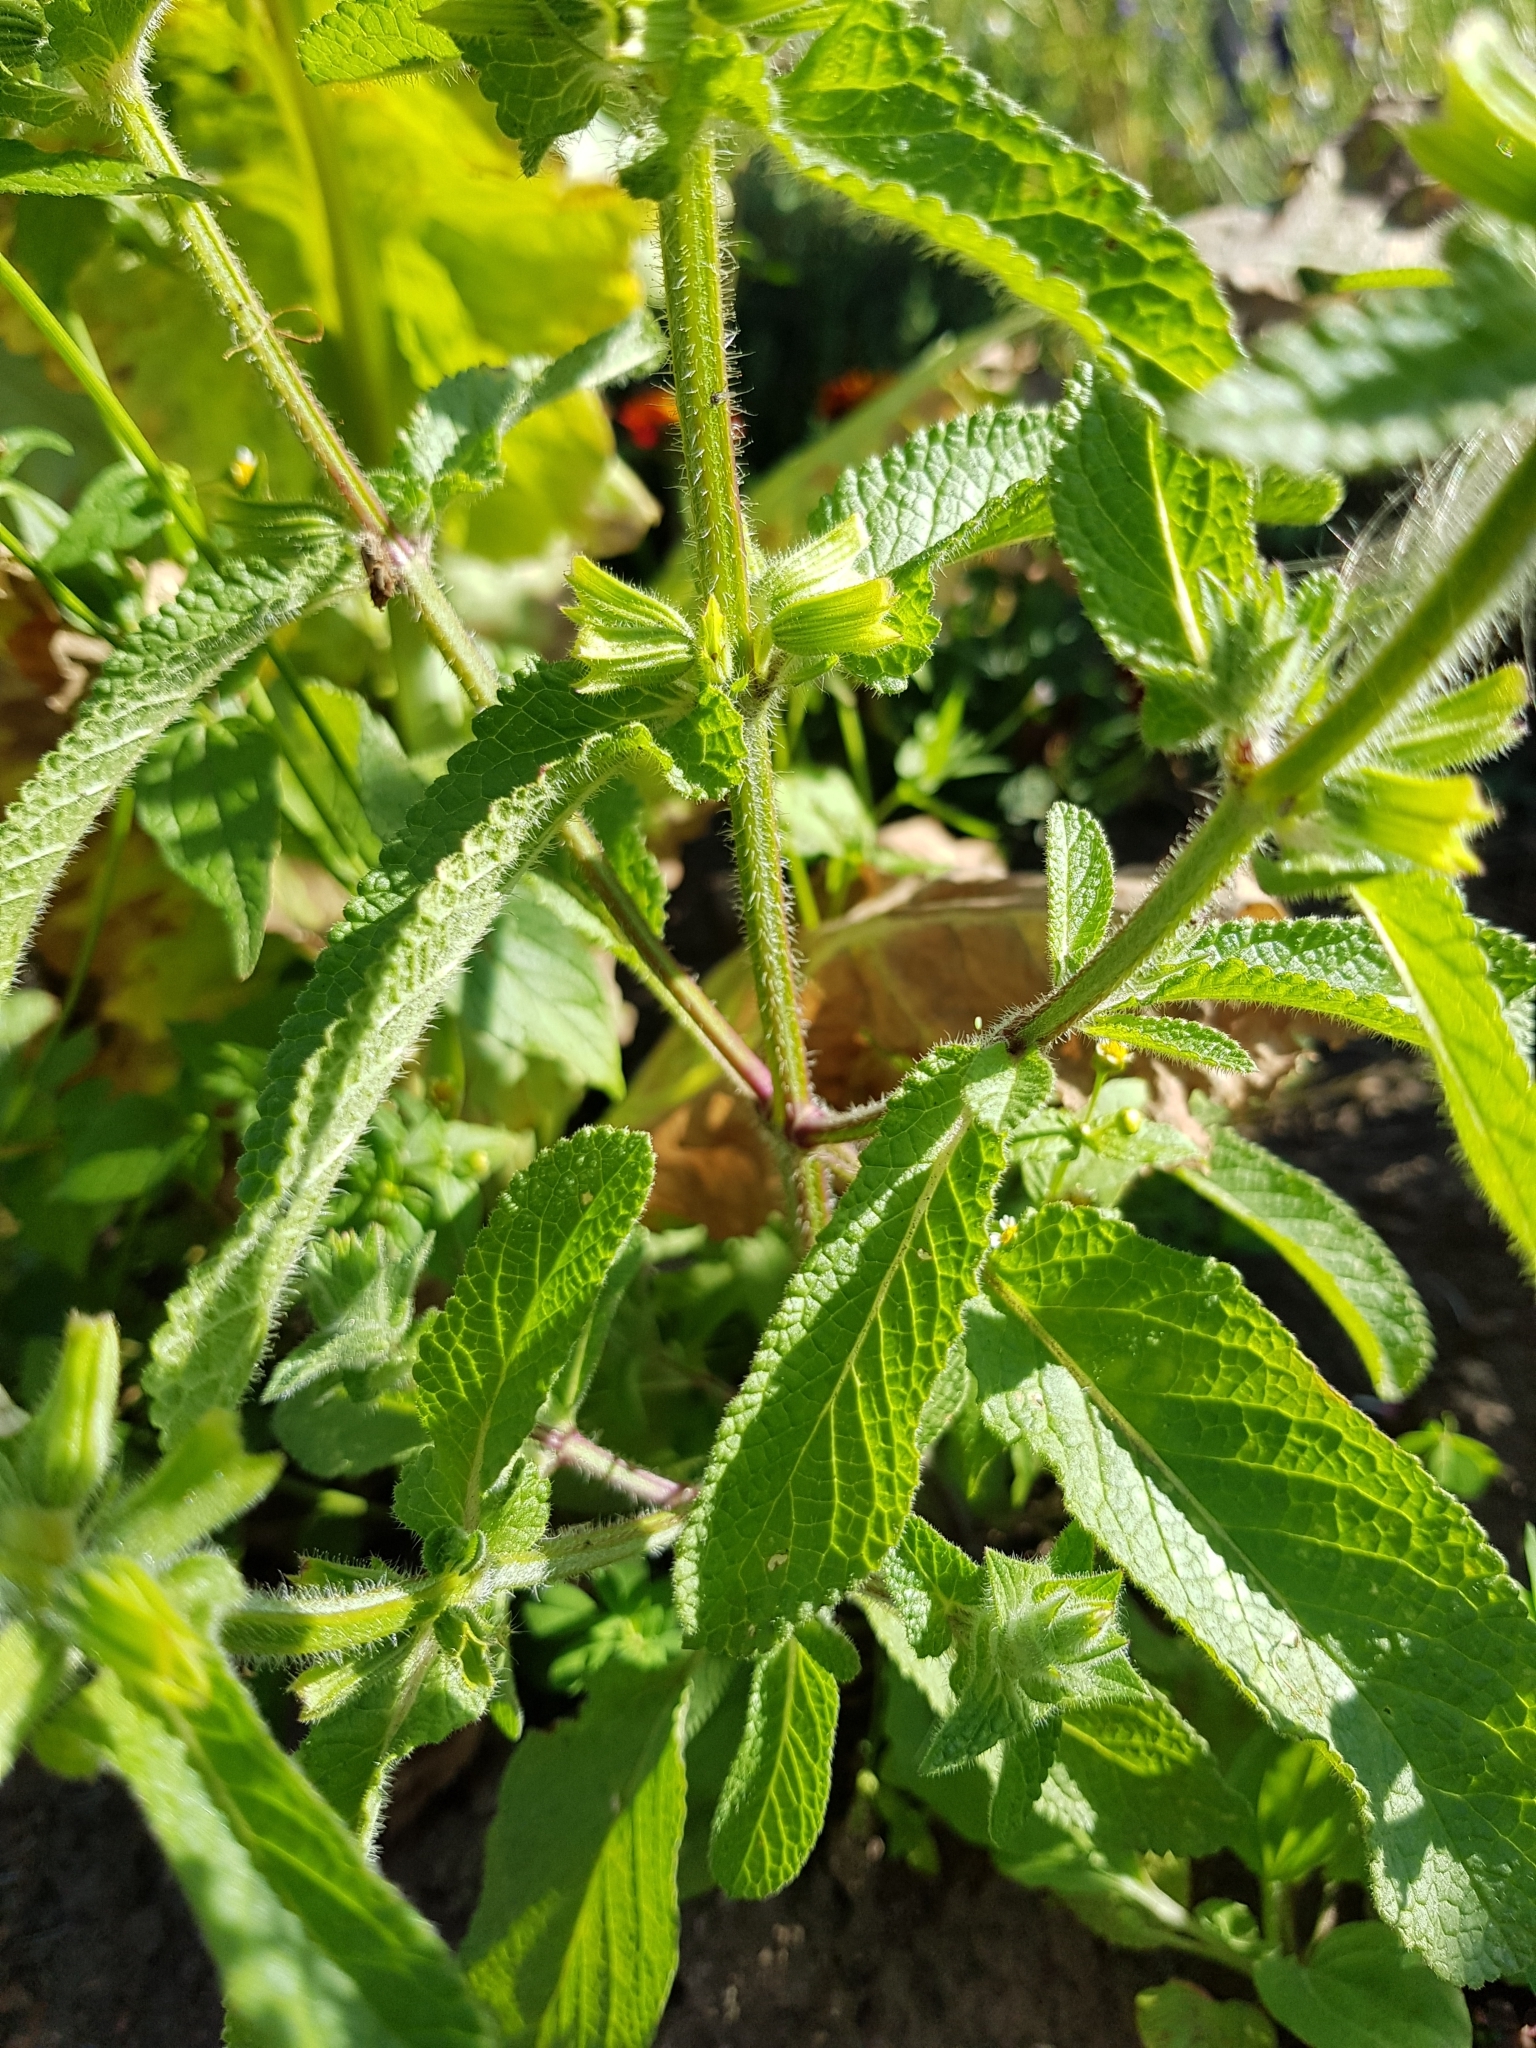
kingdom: Plantae
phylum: Tracheophyta
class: Magnoliopsida
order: Lamiales
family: Lamiaceae
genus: Salvia
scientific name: Salvia viridis
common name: Annual clary
